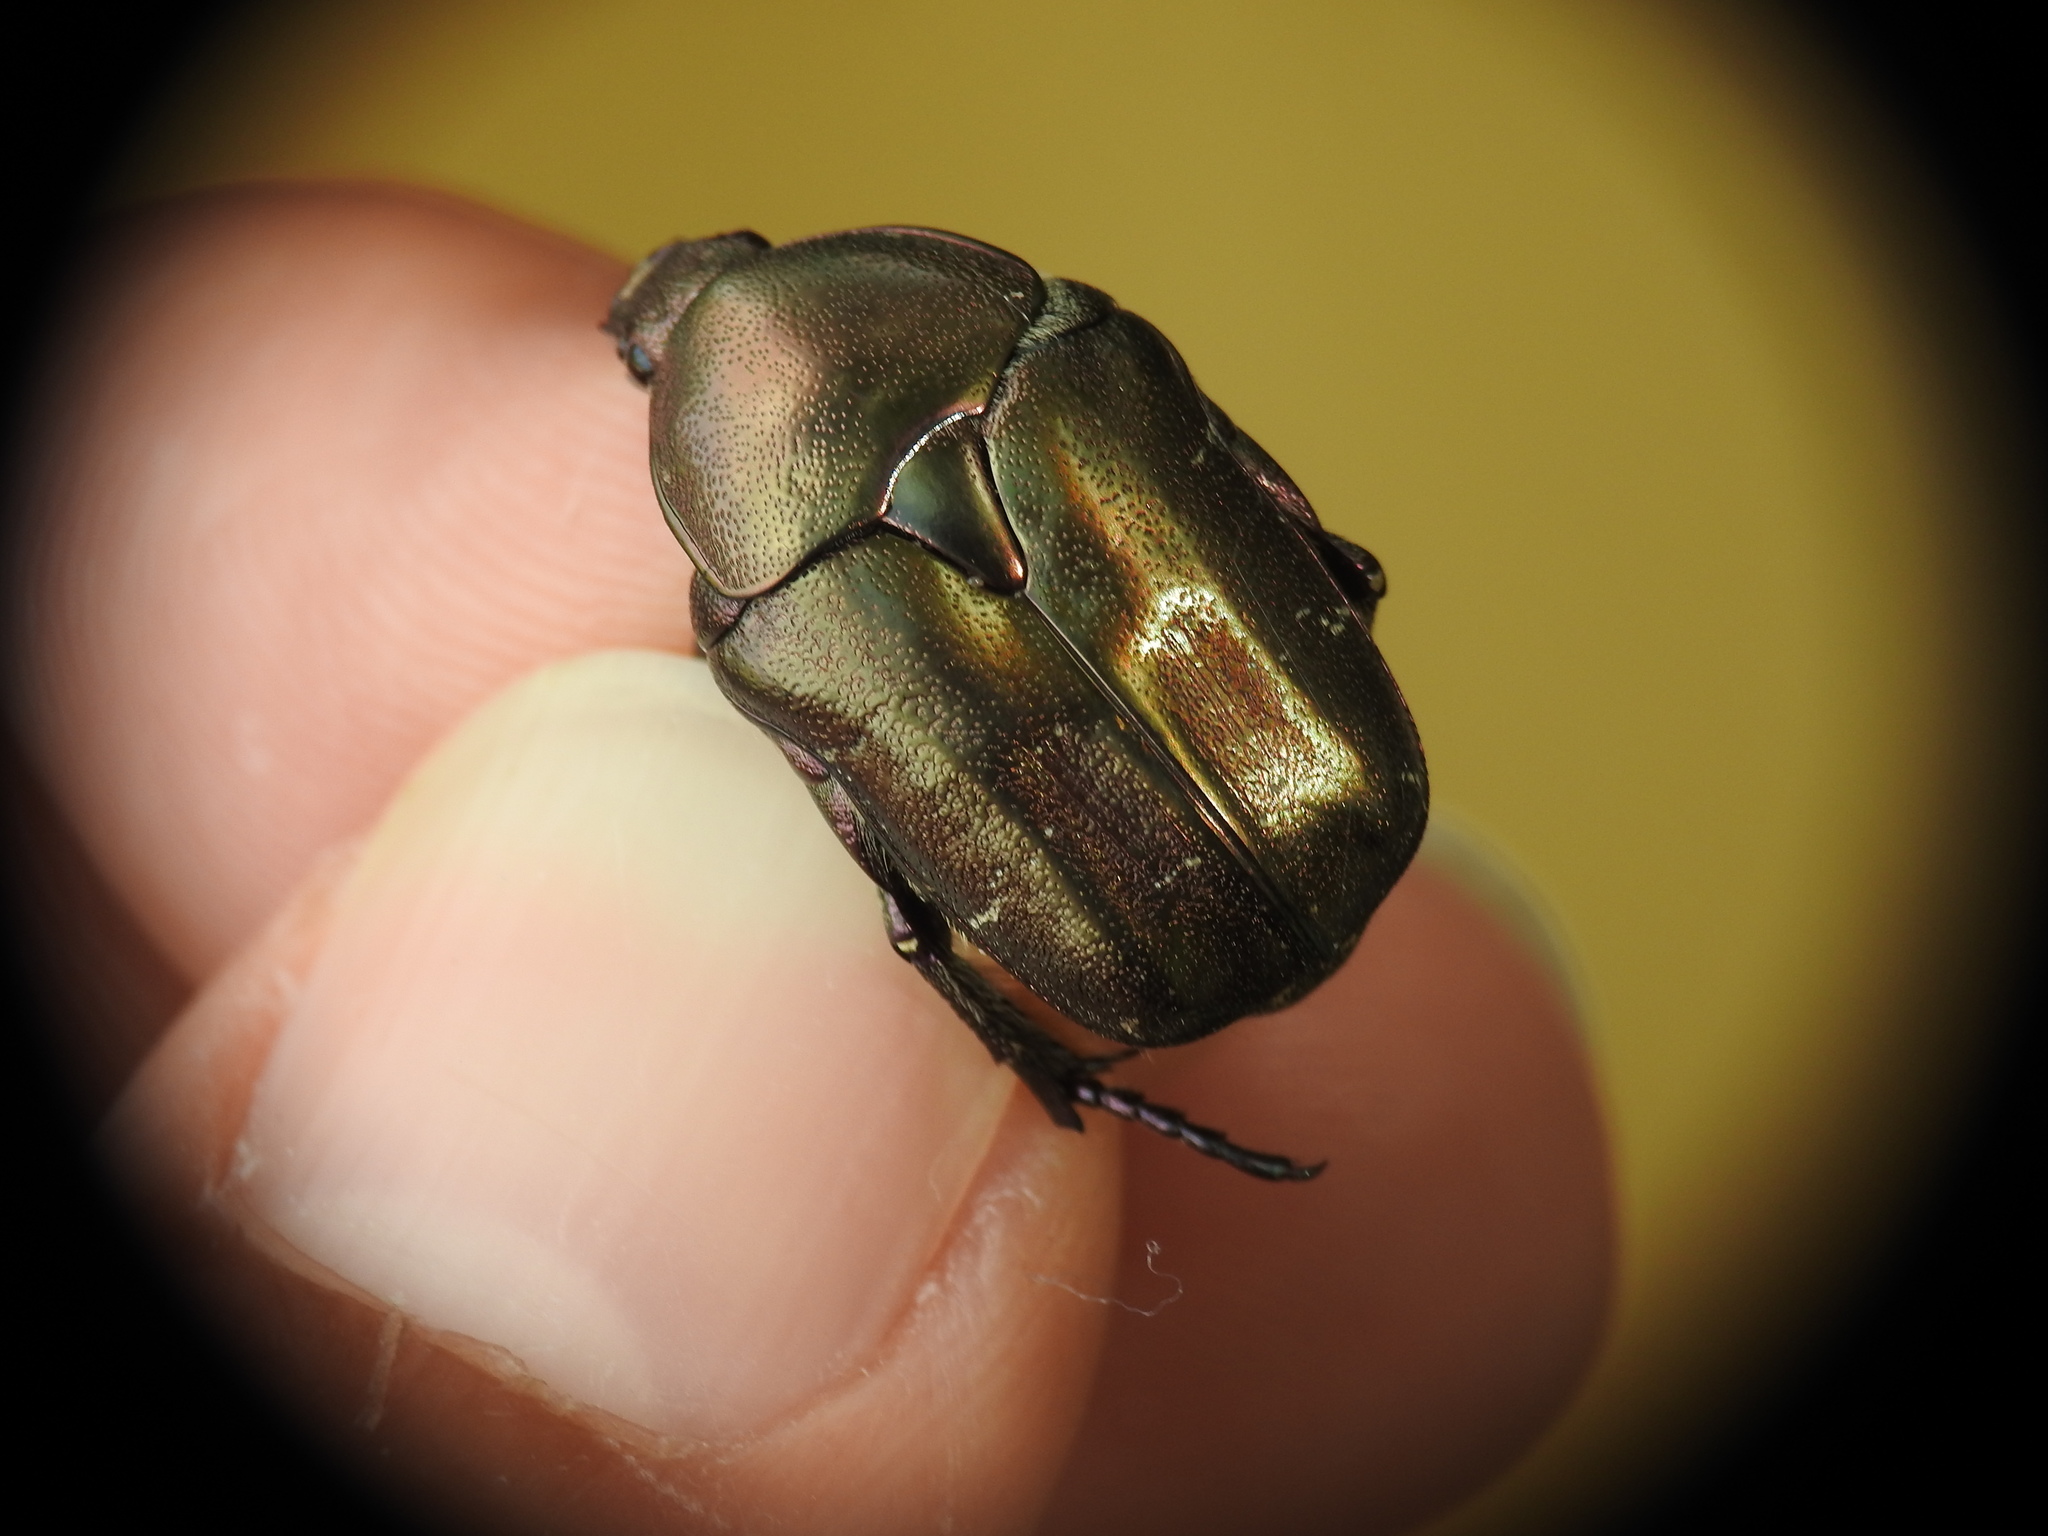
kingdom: Animalia
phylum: Arthropoda
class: Insecta
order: Coleoptera
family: Scarabaeidae
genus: Protaetia
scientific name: Protaetia cuprea
